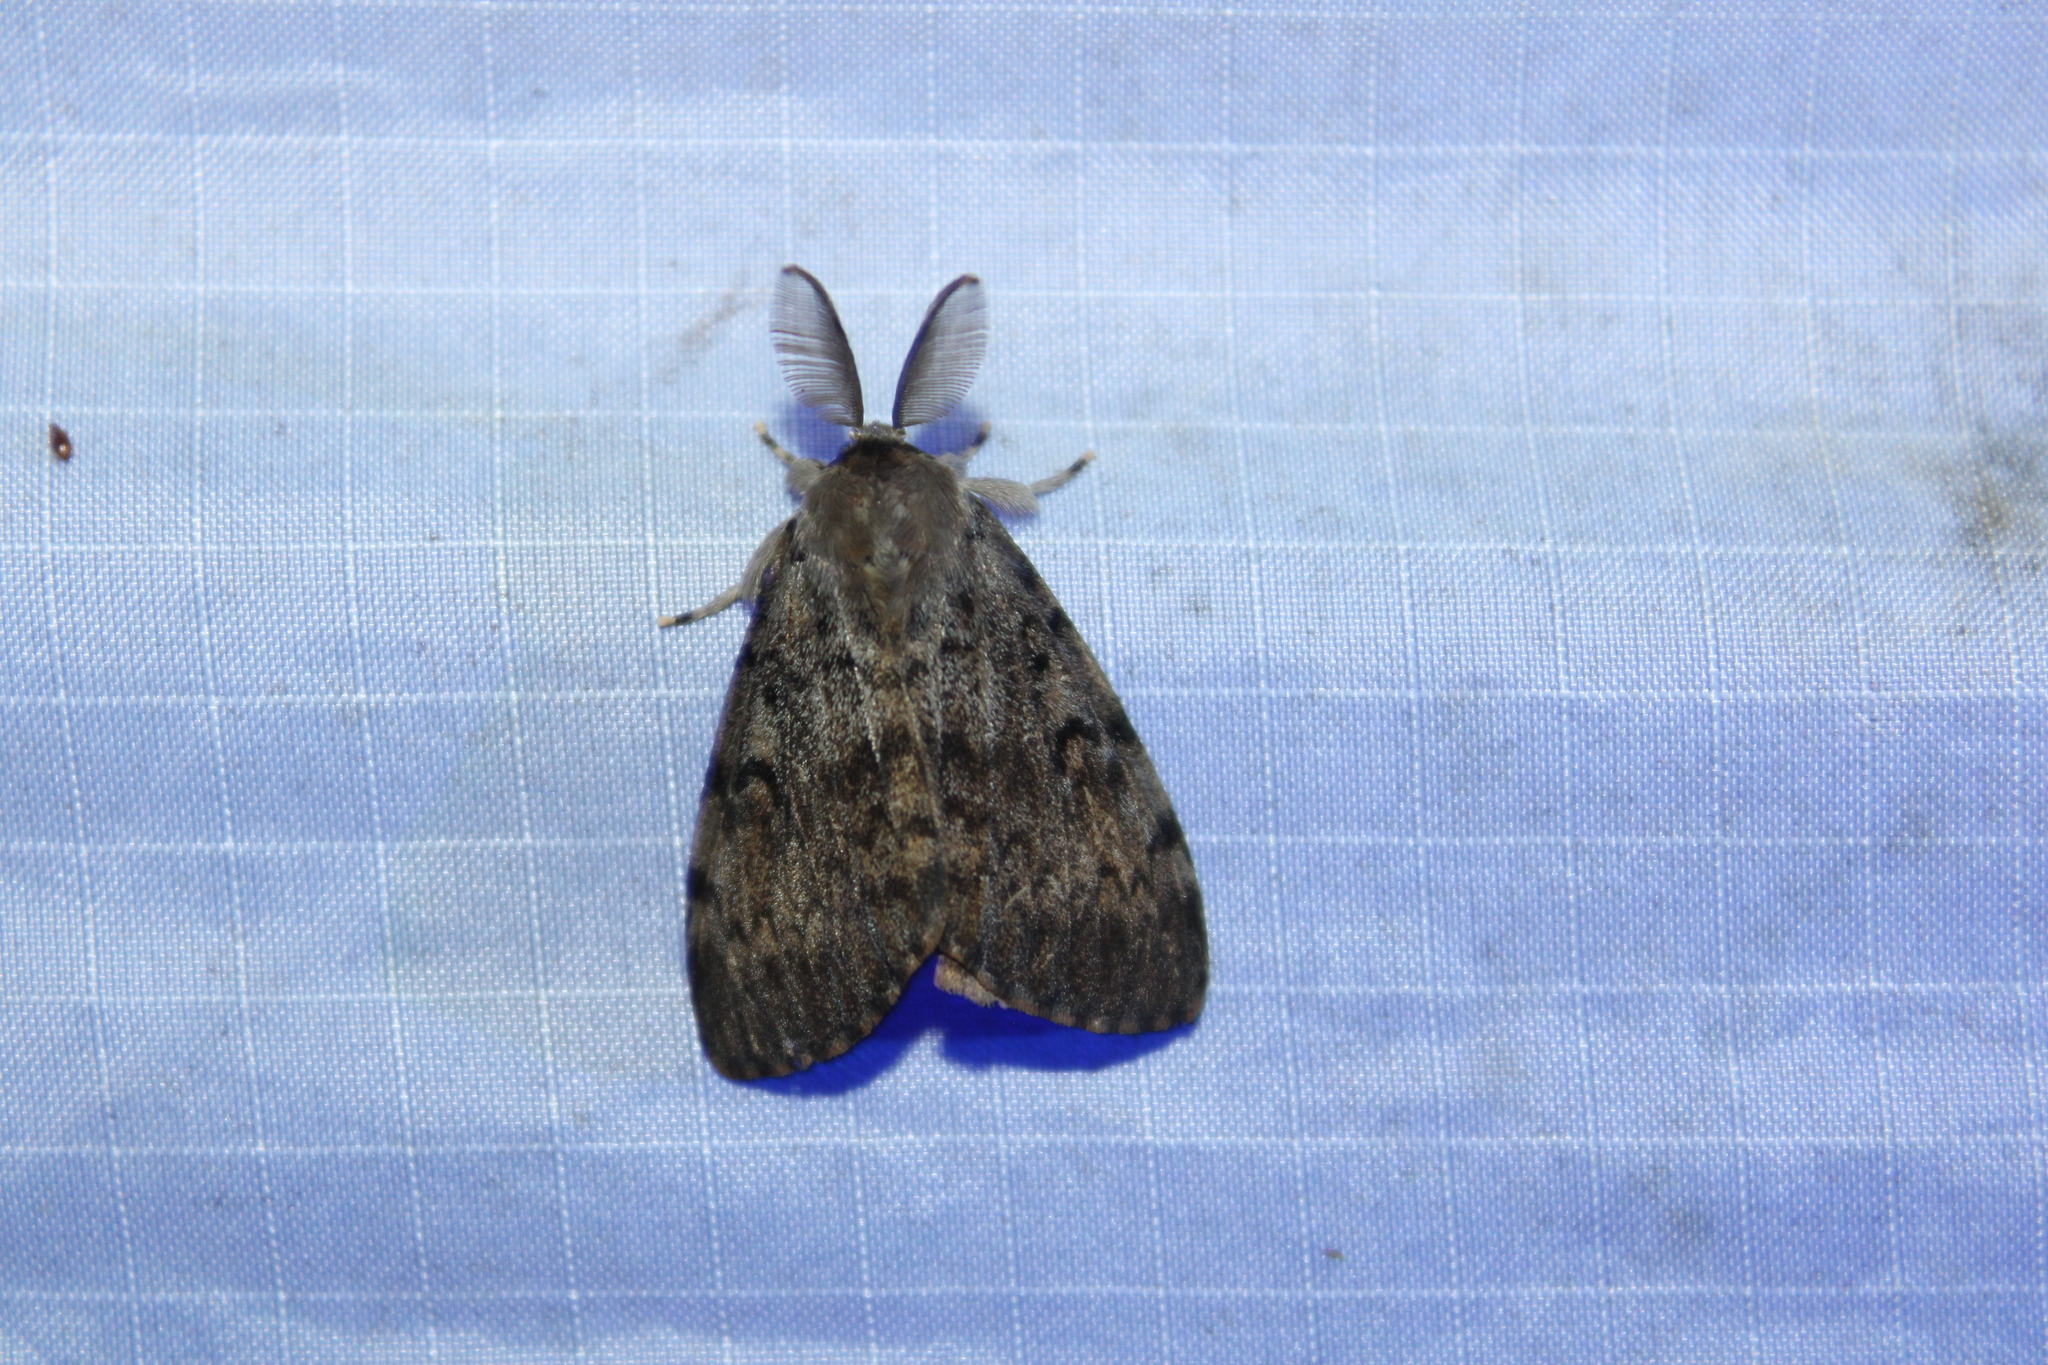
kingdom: Animalia
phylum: Arthropoda
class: Insecta
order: Lepidoptera
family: Erebidae
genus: Lymantria
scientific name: Lymantria dispar
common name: Gypsy moth
